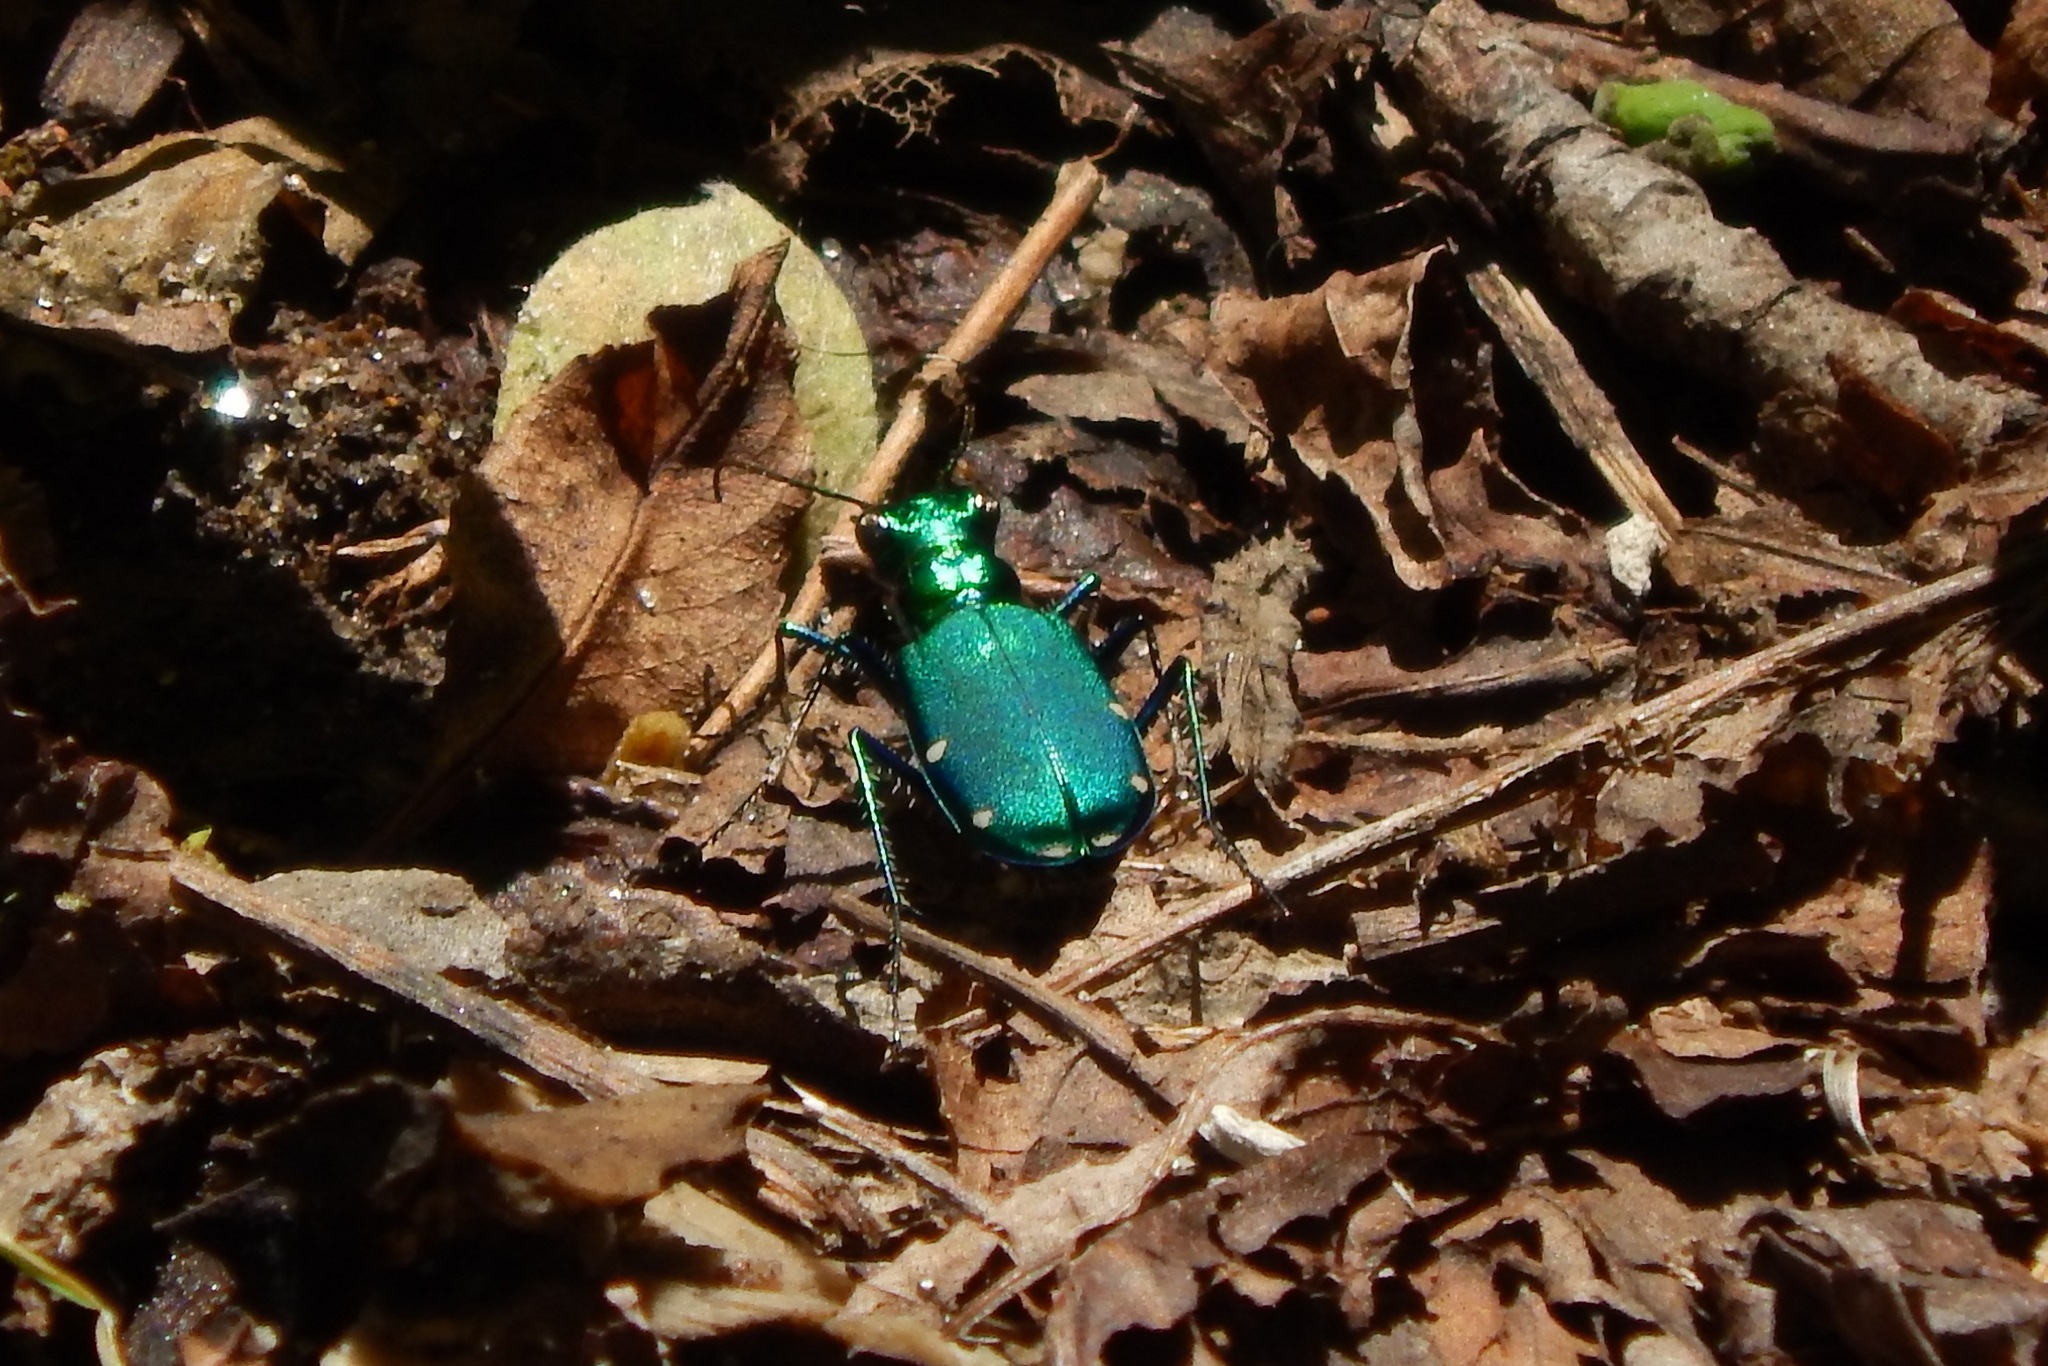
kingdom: Animalia
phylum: Arthropoda
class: Insecta
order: Coleoptera
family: Carabidae
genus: Cicindela
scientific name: Cicindela sexguttata
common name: Six-spotted tiger beetle
